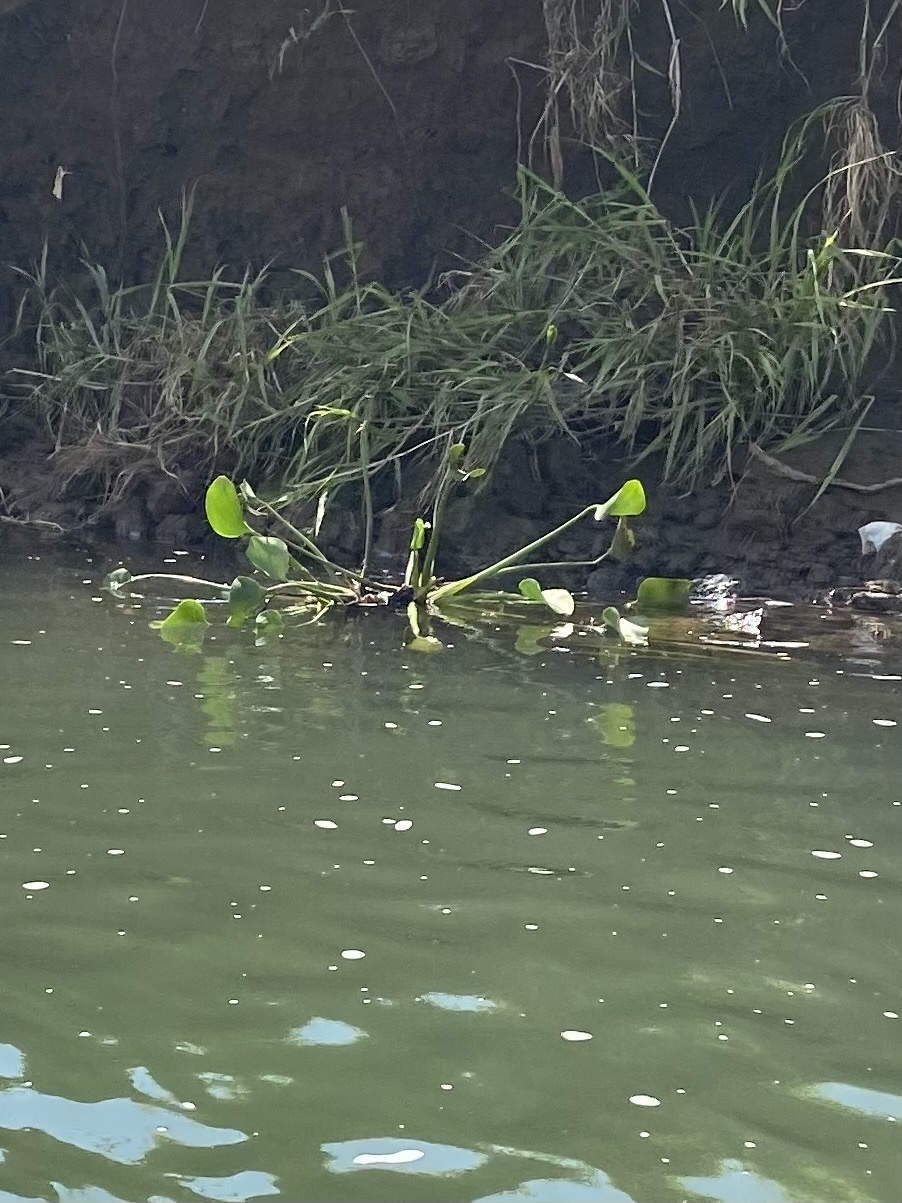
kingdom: Plantae
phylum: Tracheophyta
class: Liliopsida
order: Commelinales
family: Pontederiaceae
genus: Pontederia
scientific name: Pontederia crassipes
